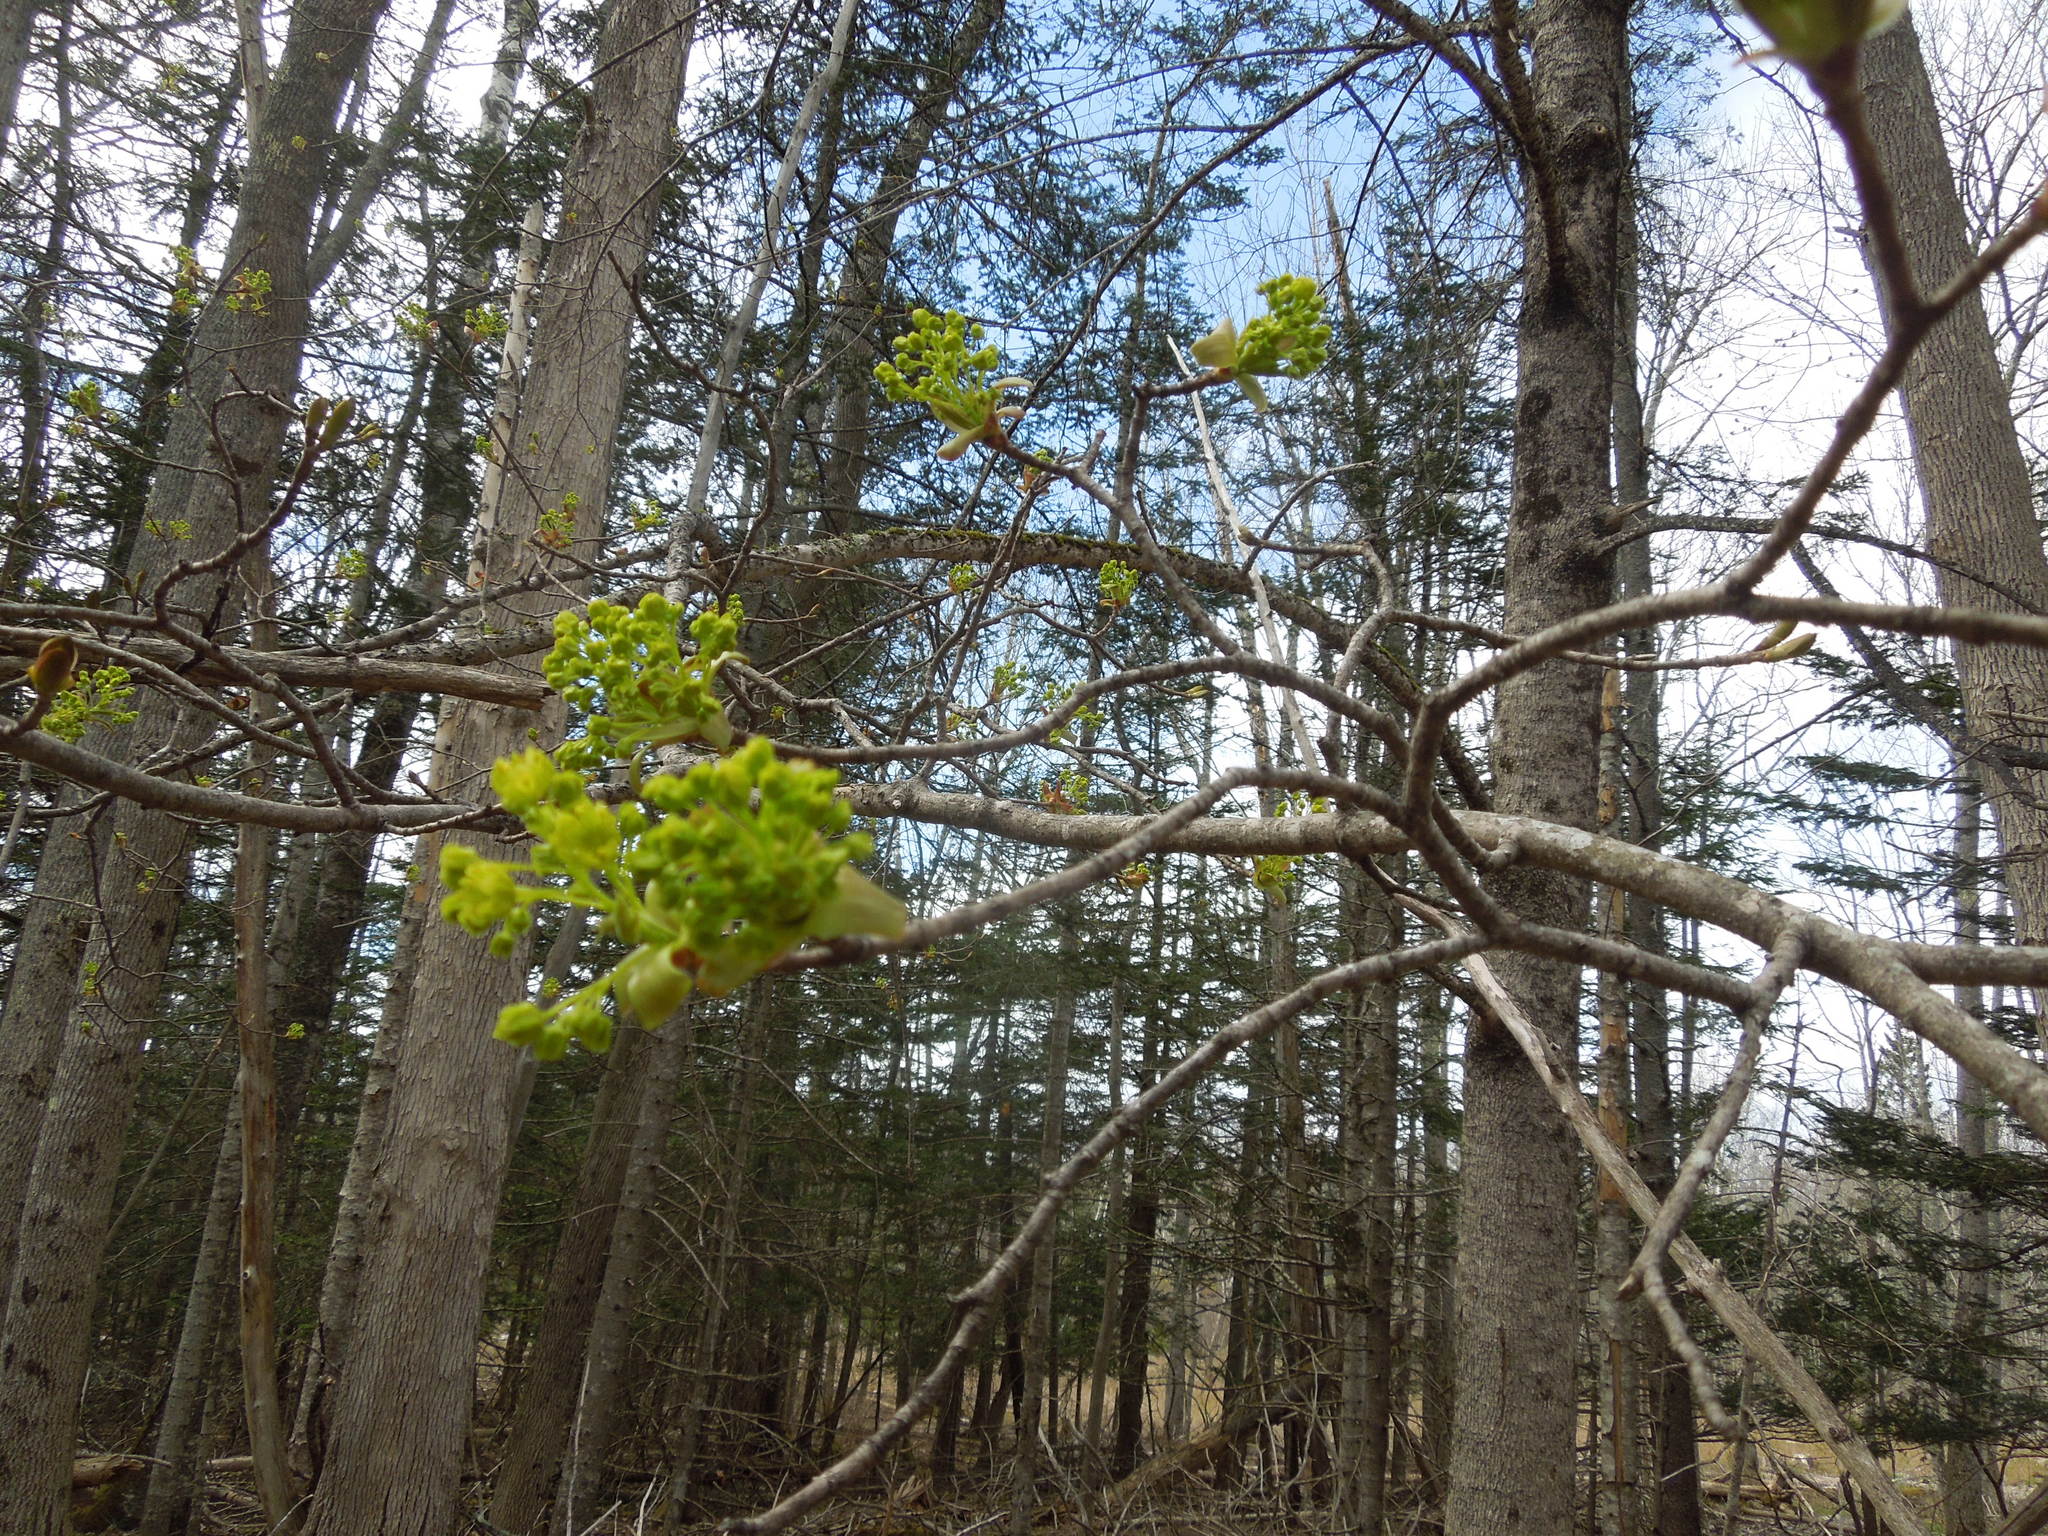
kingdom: Plantae
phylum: Tracheophyta
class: Magnoliopsida
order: Sapindales
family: Sapindaceae
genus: Acer
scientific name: Acer platanoides
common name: Norway maple
